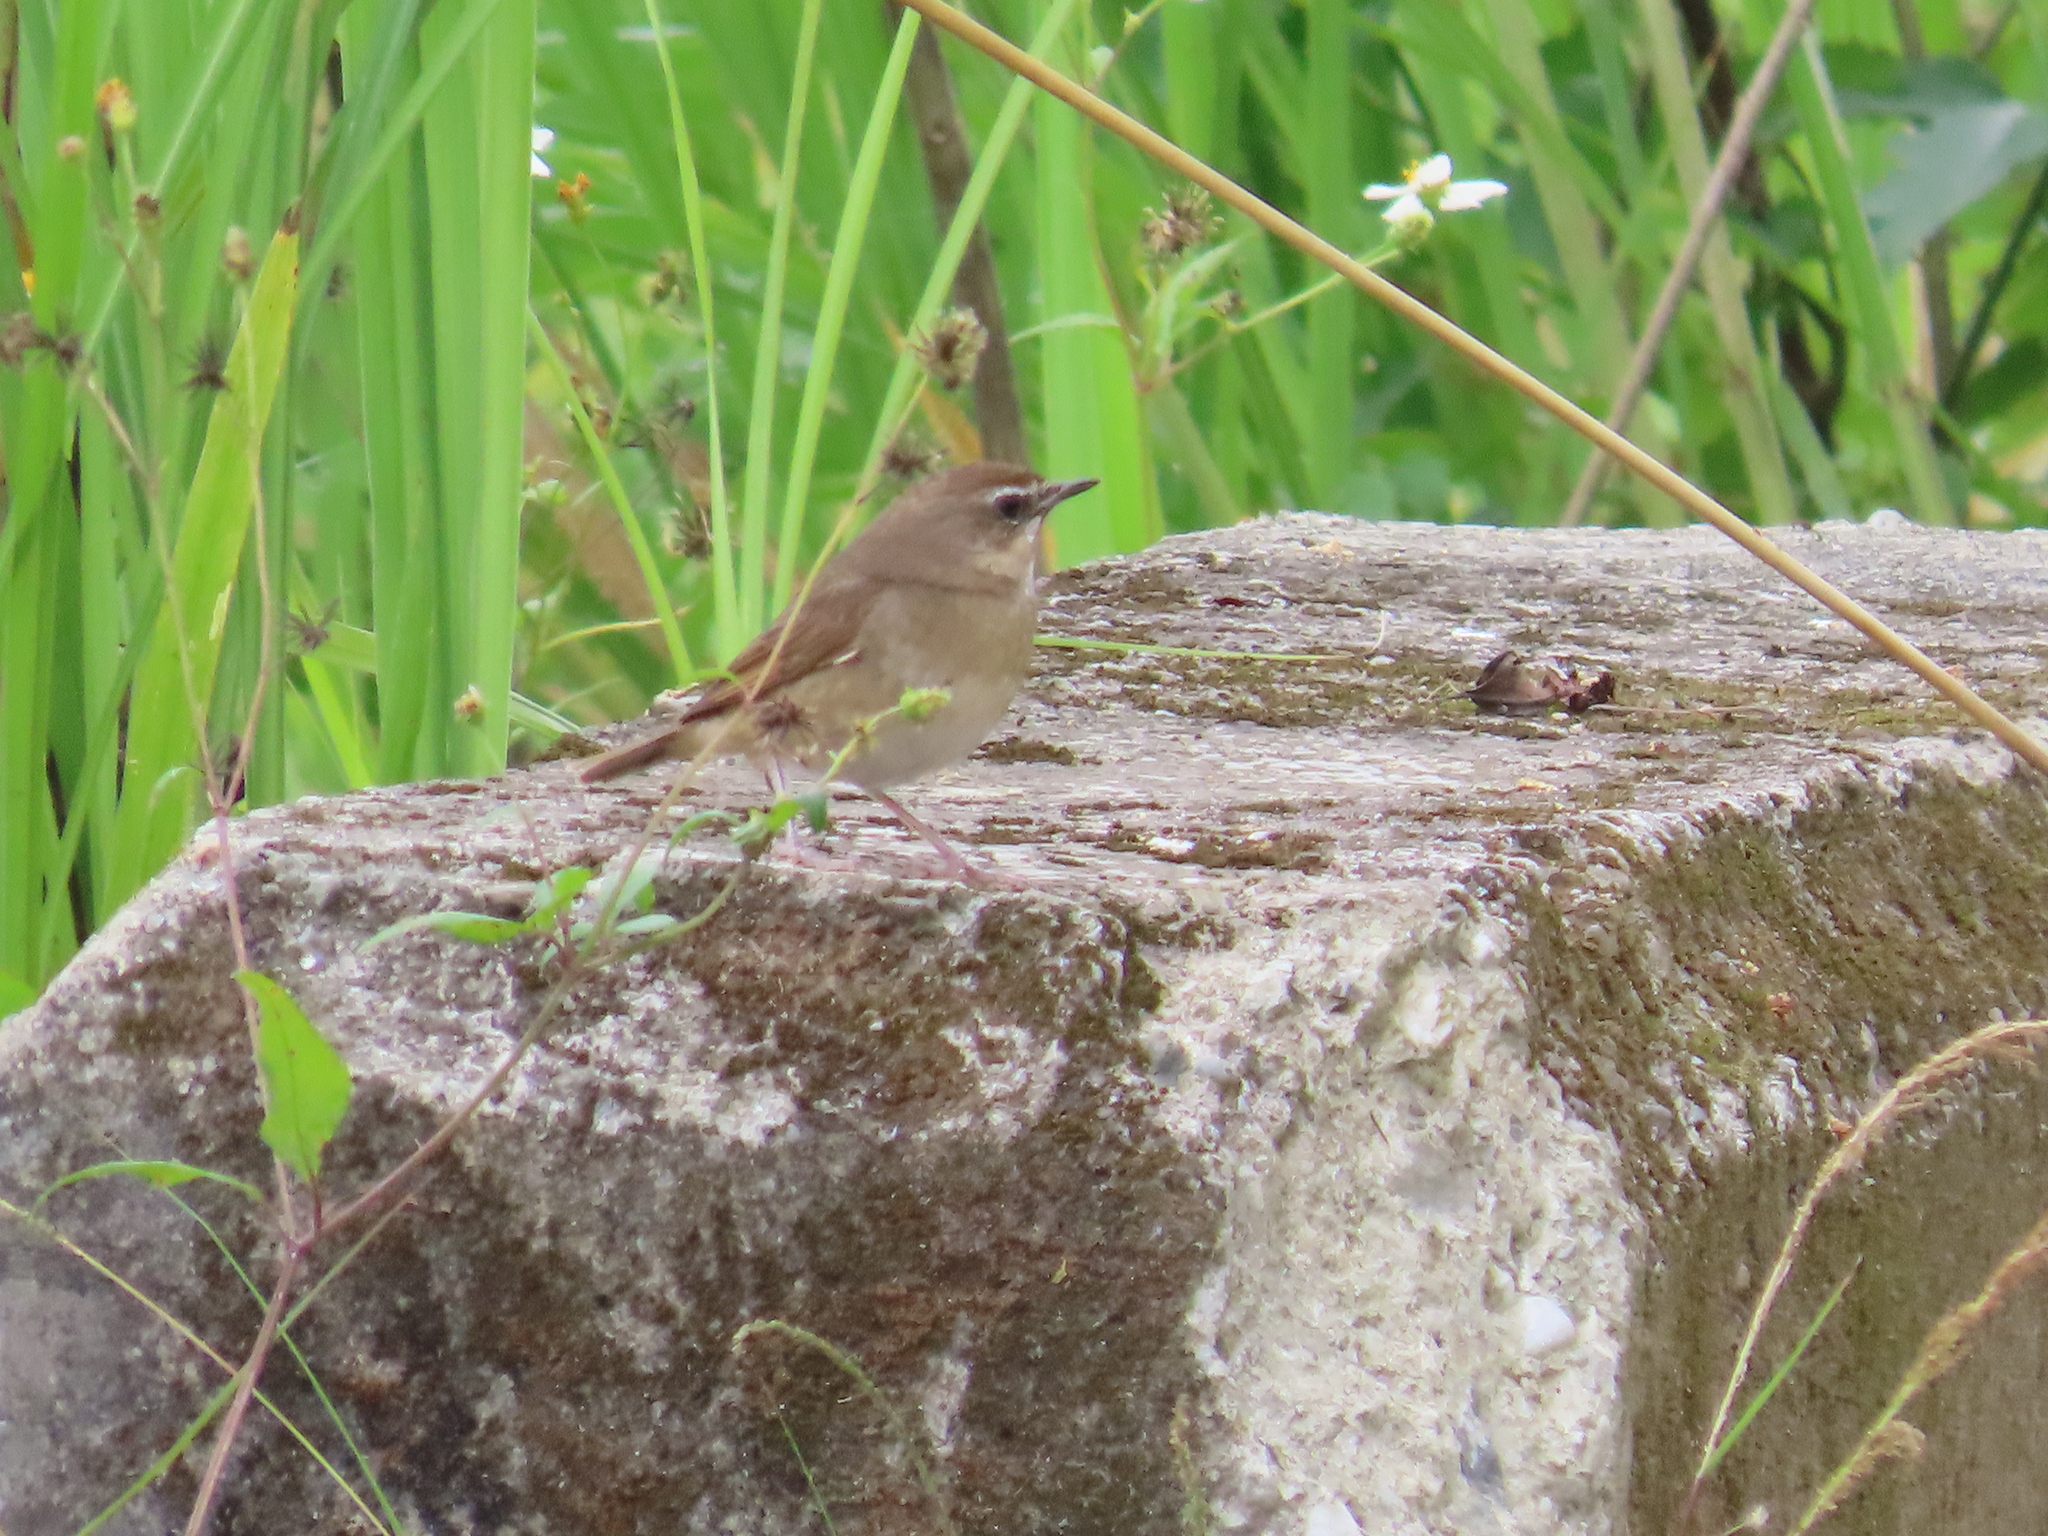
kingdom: Animalia
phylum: Chordata
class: Aves
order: Passeriformes
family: Muscicapidae
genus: Luscinia
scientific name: Luscinia calliope
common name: Siberian rubythroat
